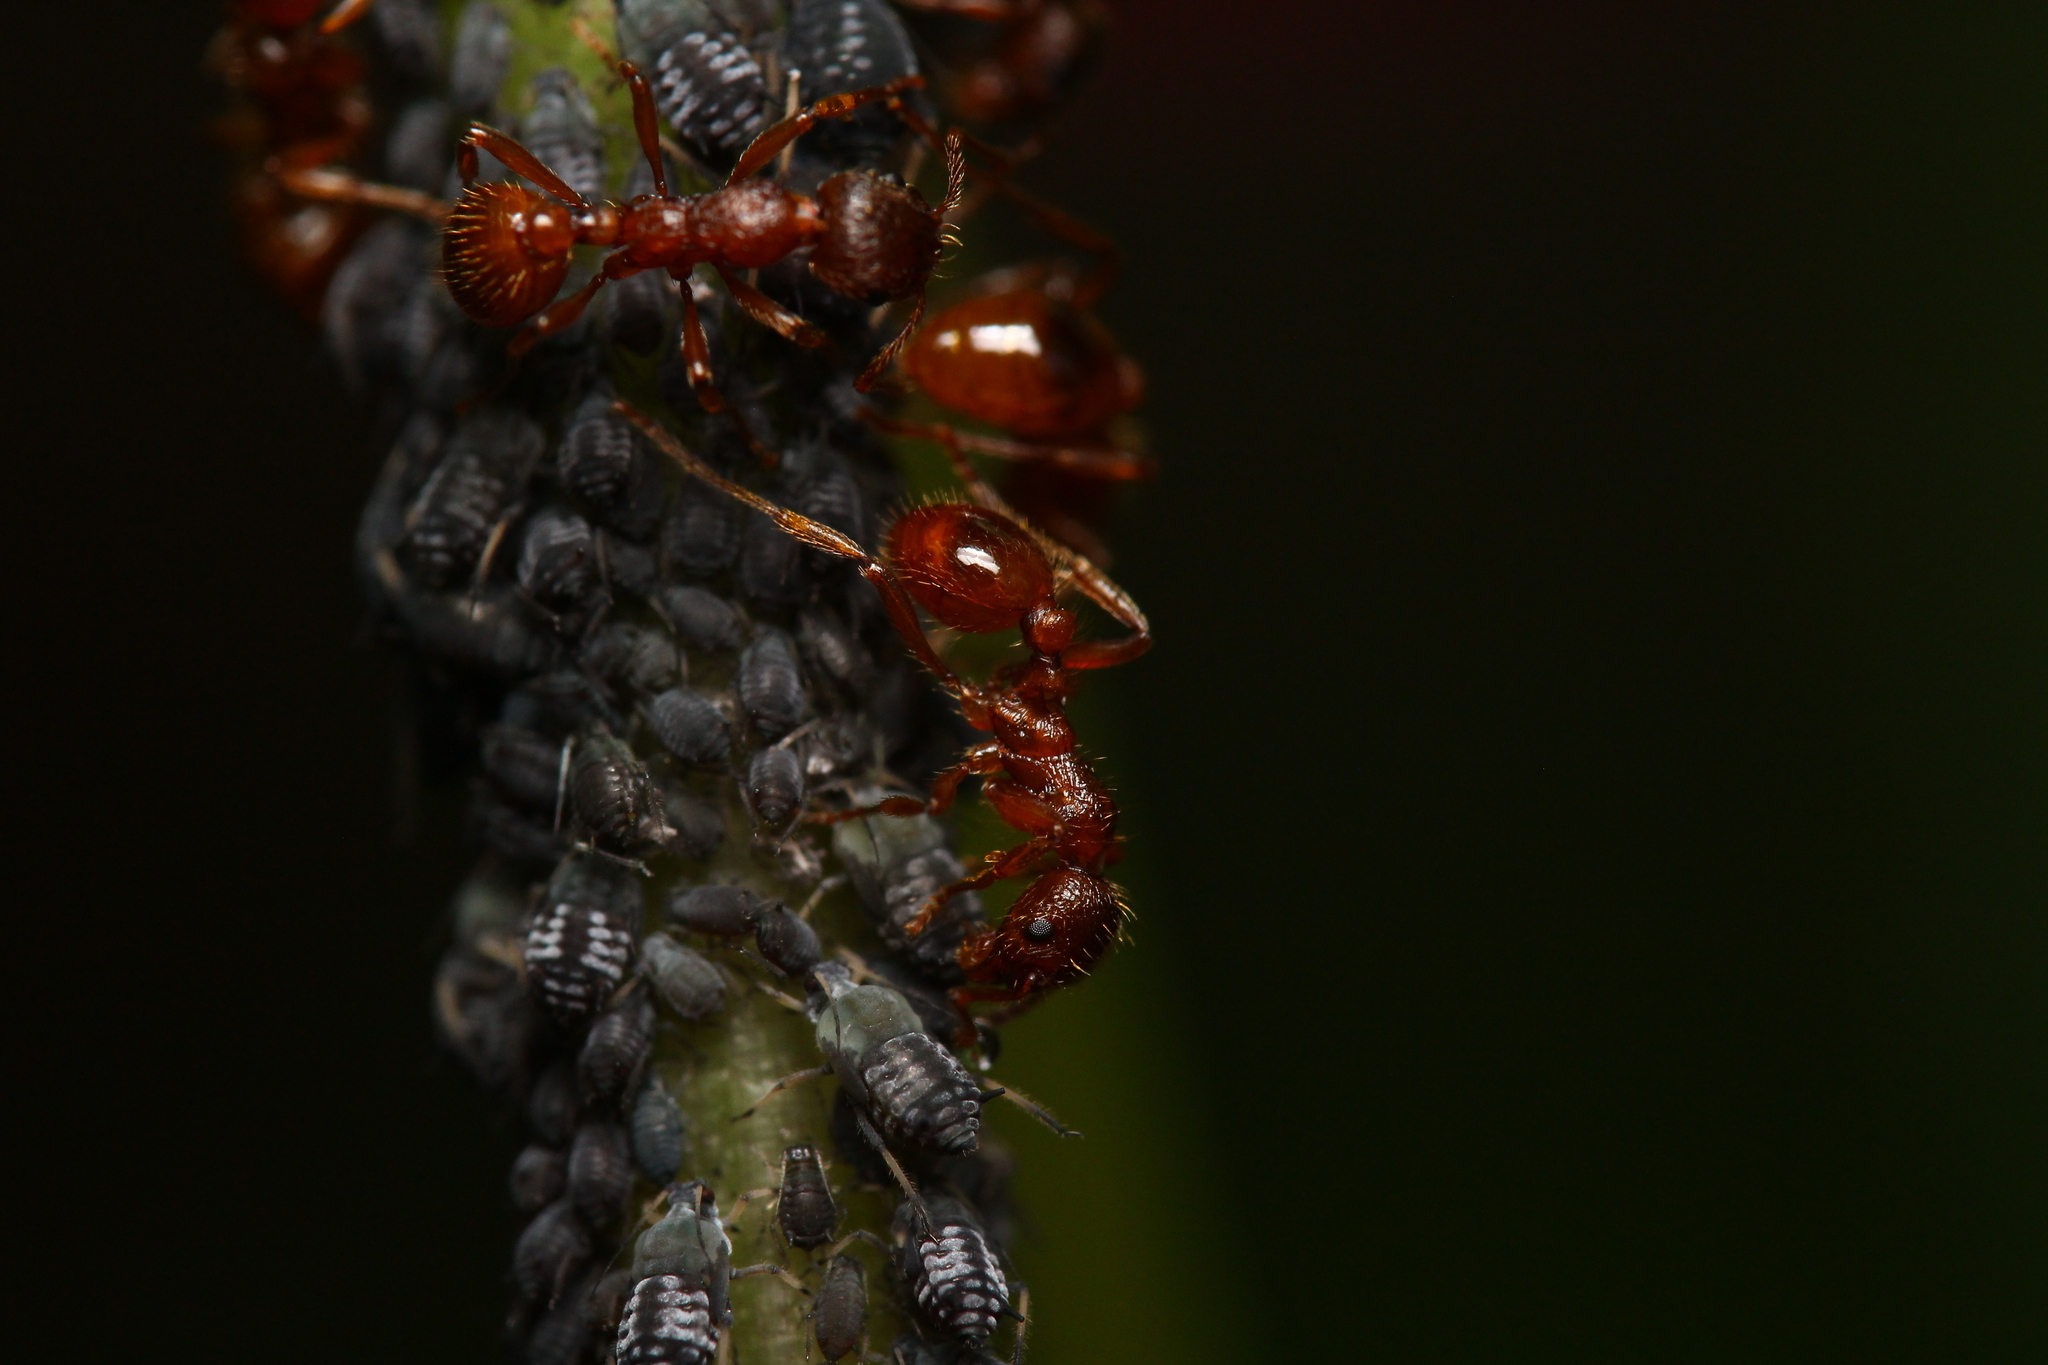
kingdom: Animalia
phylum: Arthropoda
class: Insecta
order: Hymenoptera
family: Formicidae
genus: Myrmica
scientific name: Myrmica rubra
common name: European fire ant
